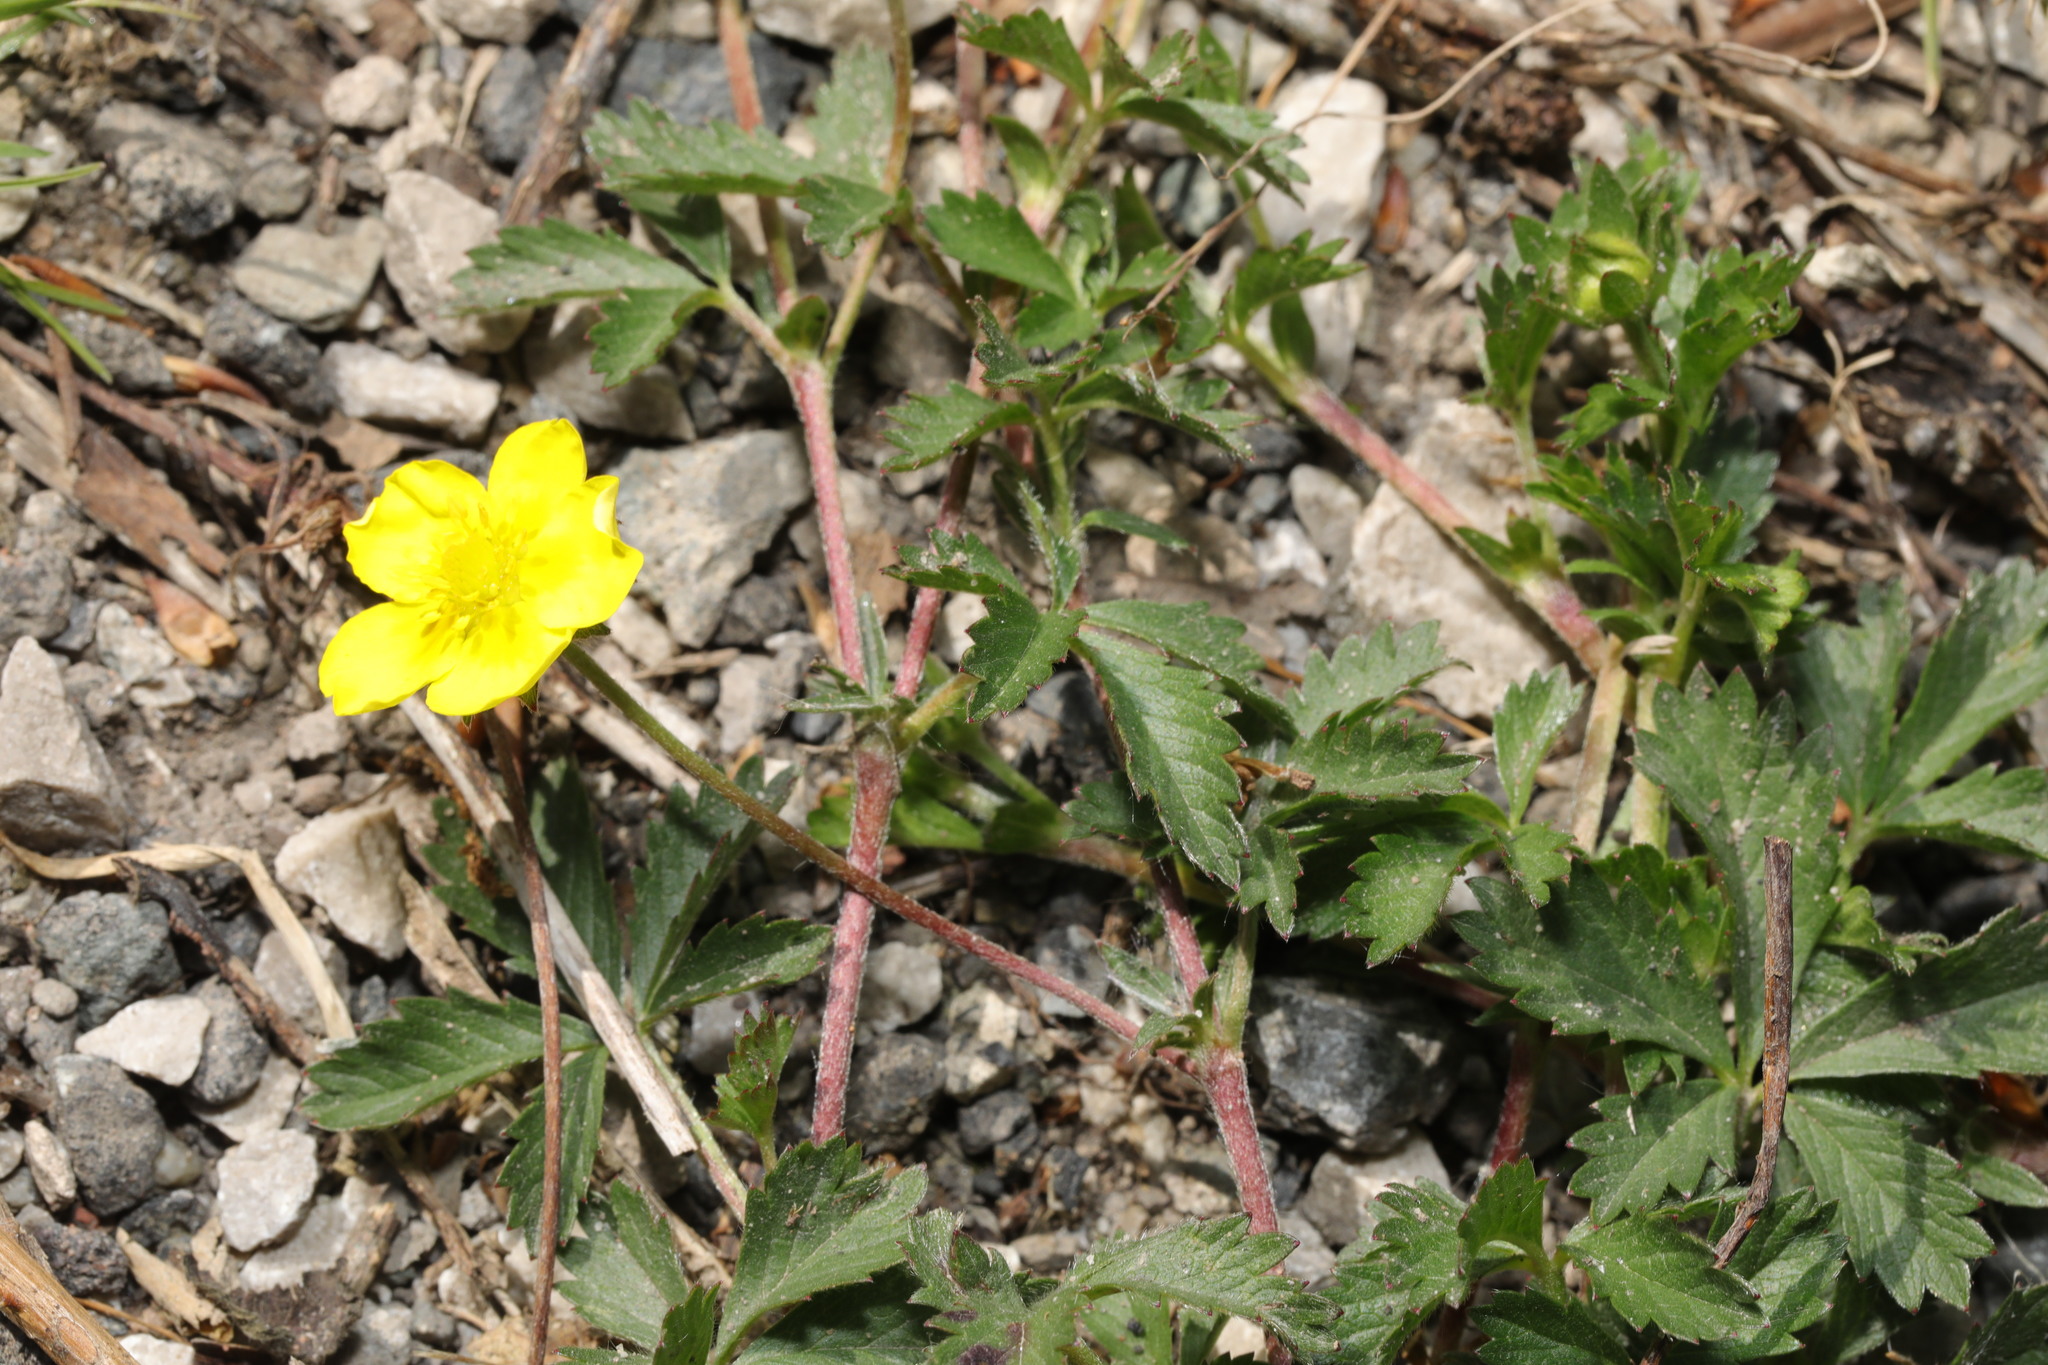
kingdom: Plantae
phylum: Tracheophyta
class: Magnoliopsida
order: Rosales
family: Rosaceae
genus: Potentilla
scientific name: Potentilla reptans
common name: Creeping cinquefoil
